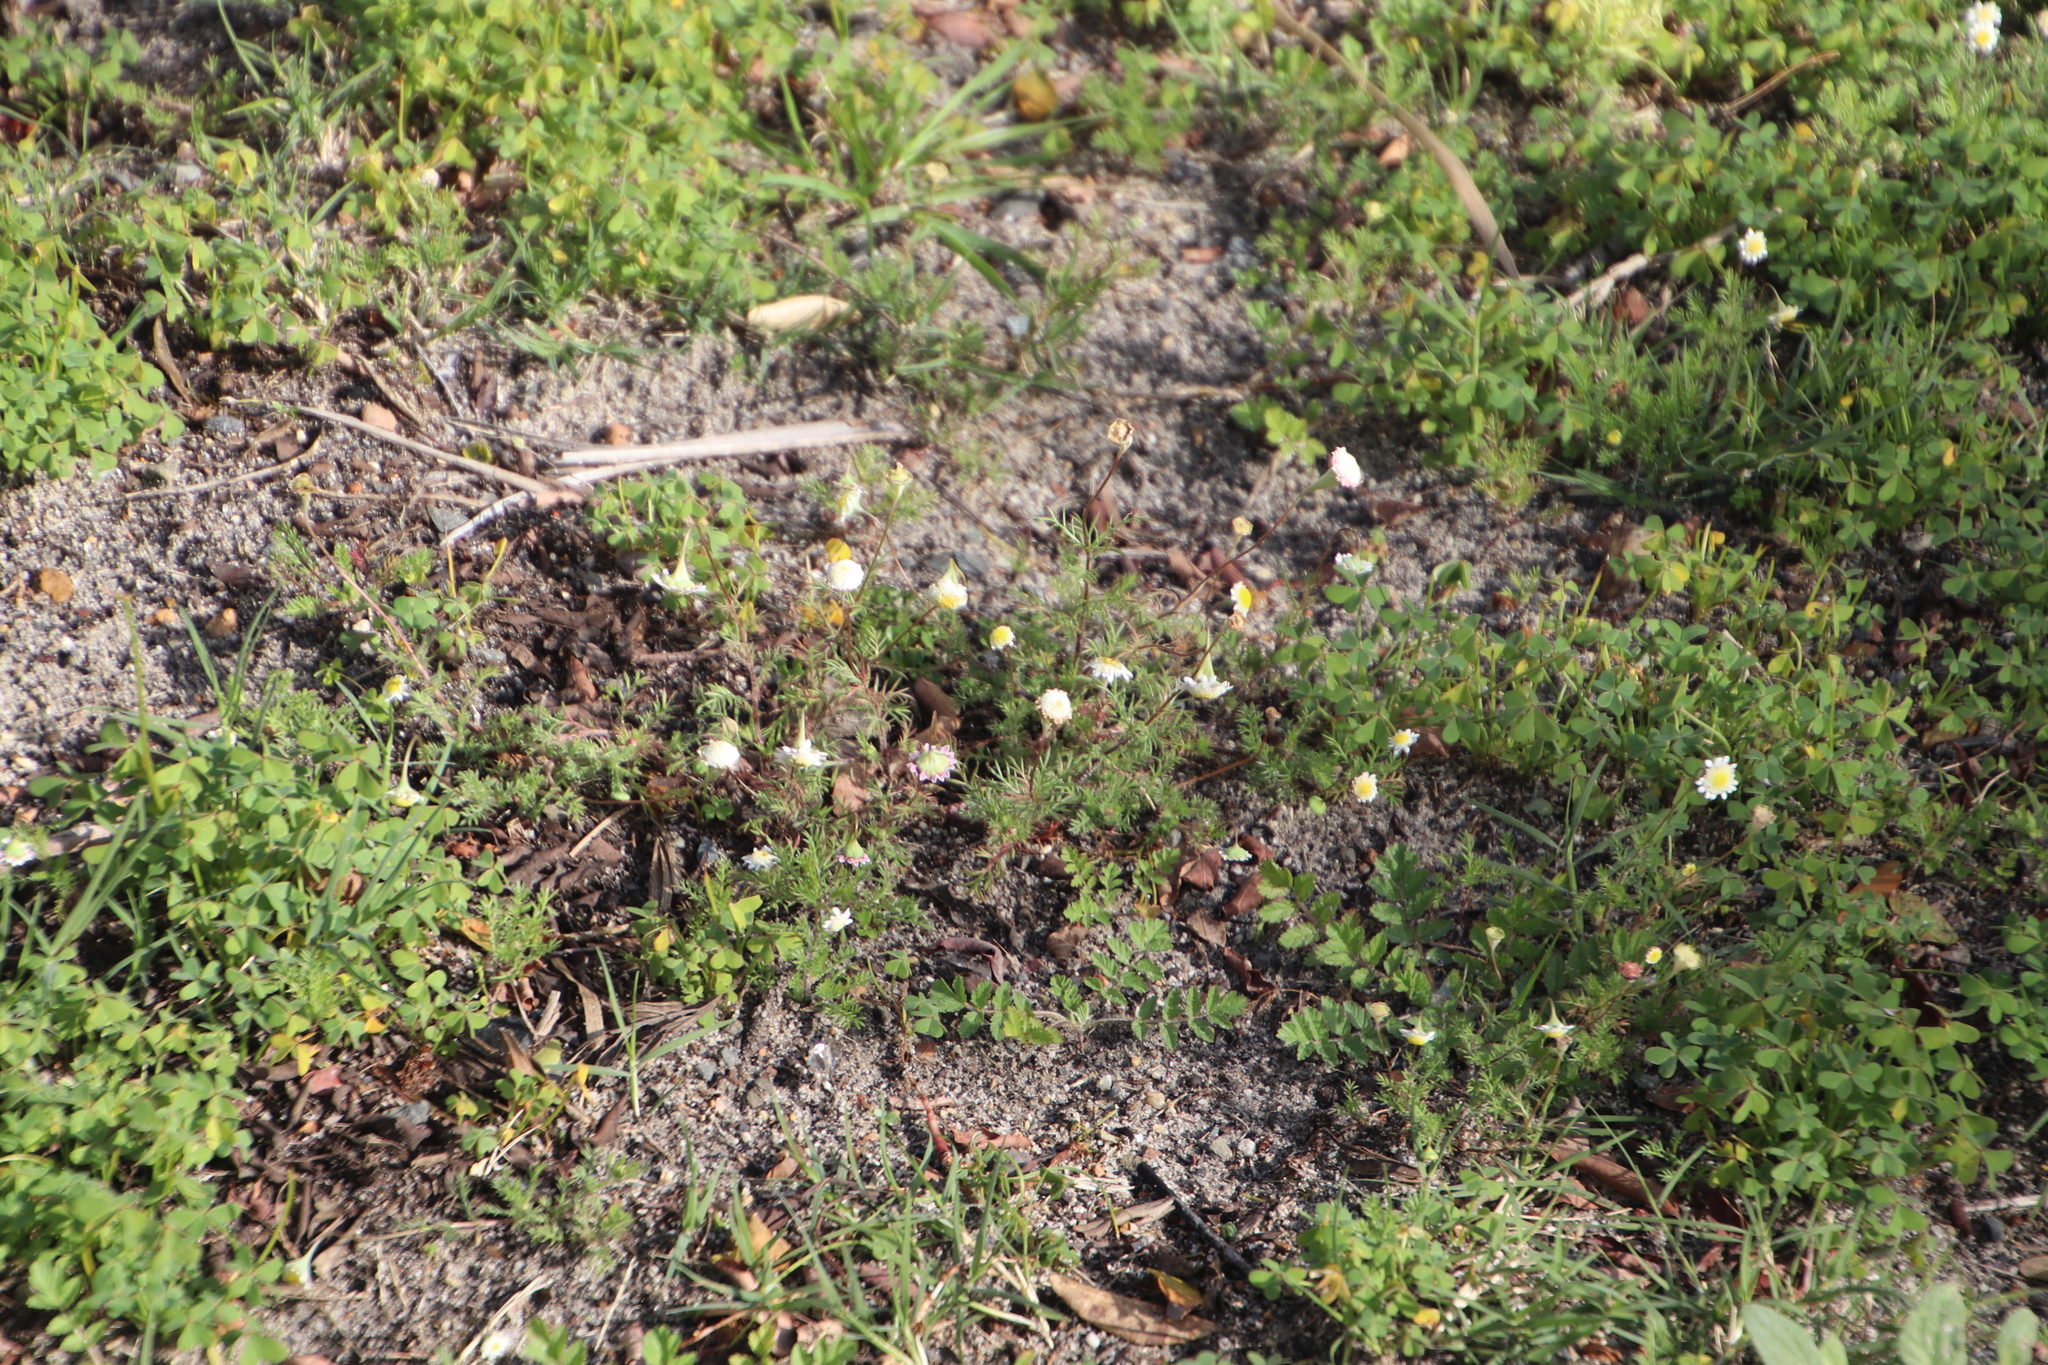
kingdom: Plantae
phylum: Tracheophyta
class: Magnoliopsida
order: Asterales
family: Asteraceae
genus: Cotula
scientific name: Cotula turbinata
